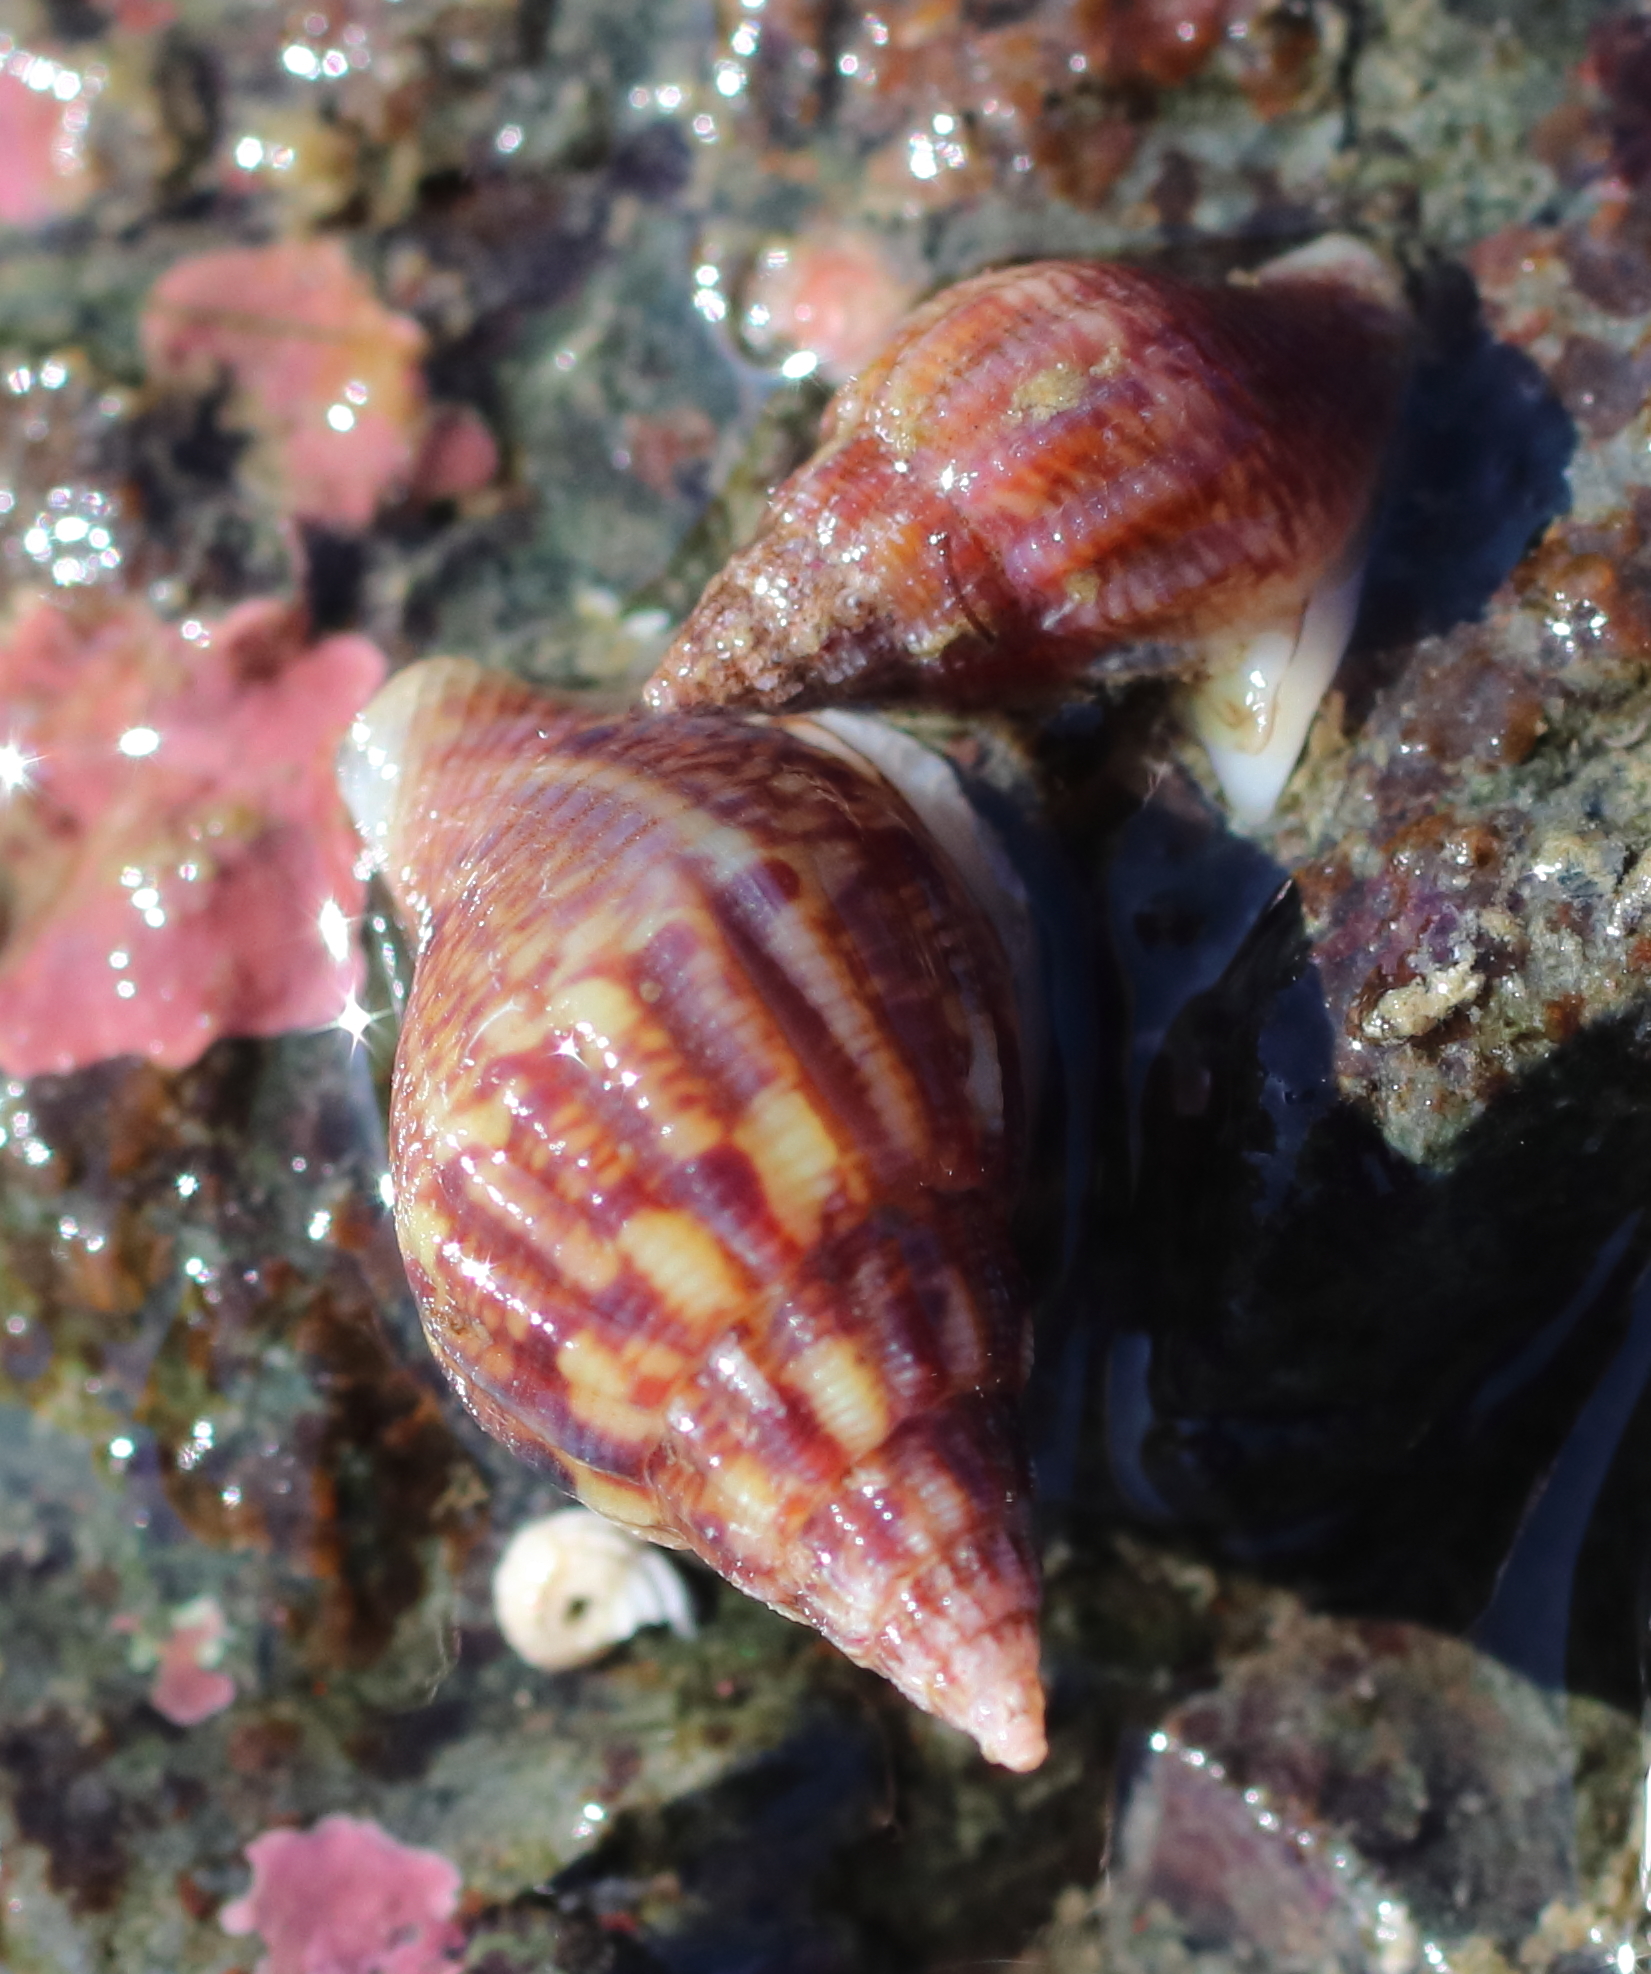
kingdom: Animalia
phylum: Mollusca
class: Gastropoda
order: Neogastropoda
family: Columbellidae
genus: Amphissa
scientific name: Amphissa columbiana
